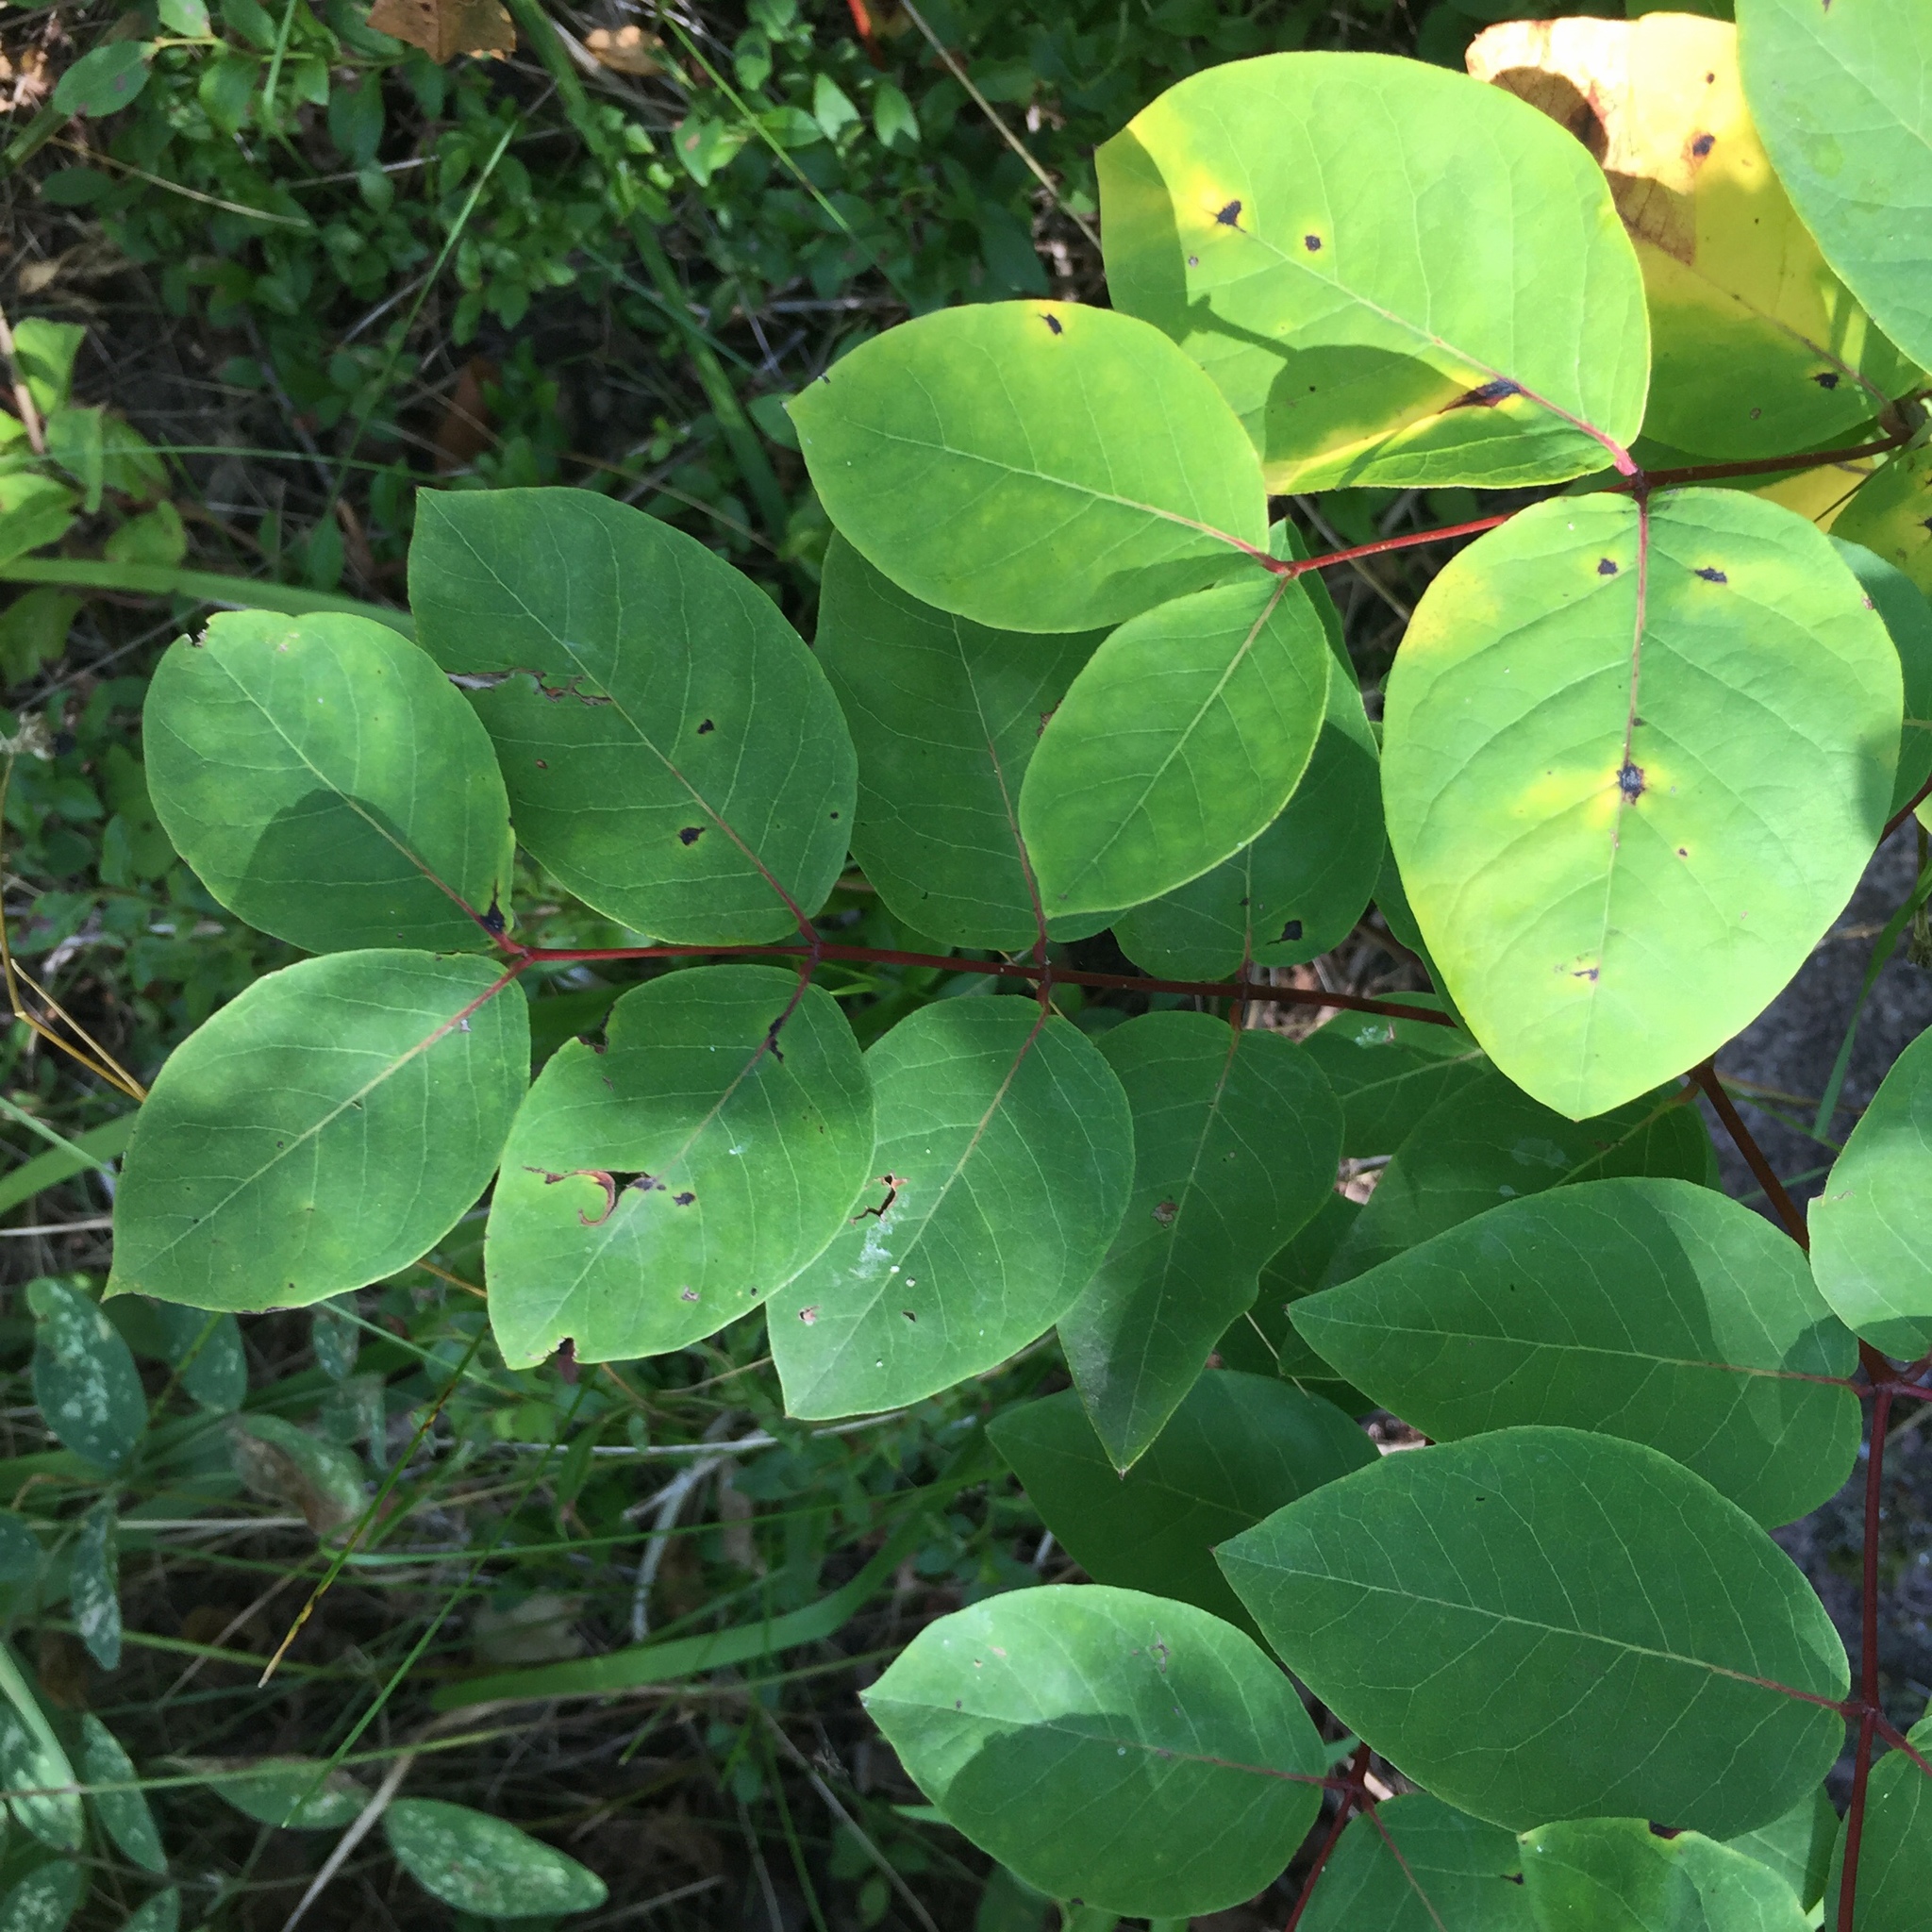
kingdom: Plantae
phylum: Tracheophyta
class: Magnoliopsida
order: Gentianales
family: Apocynaceae
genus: Apocynum
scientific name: Apocynum androsaemifolium
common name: Spreading dogbane
